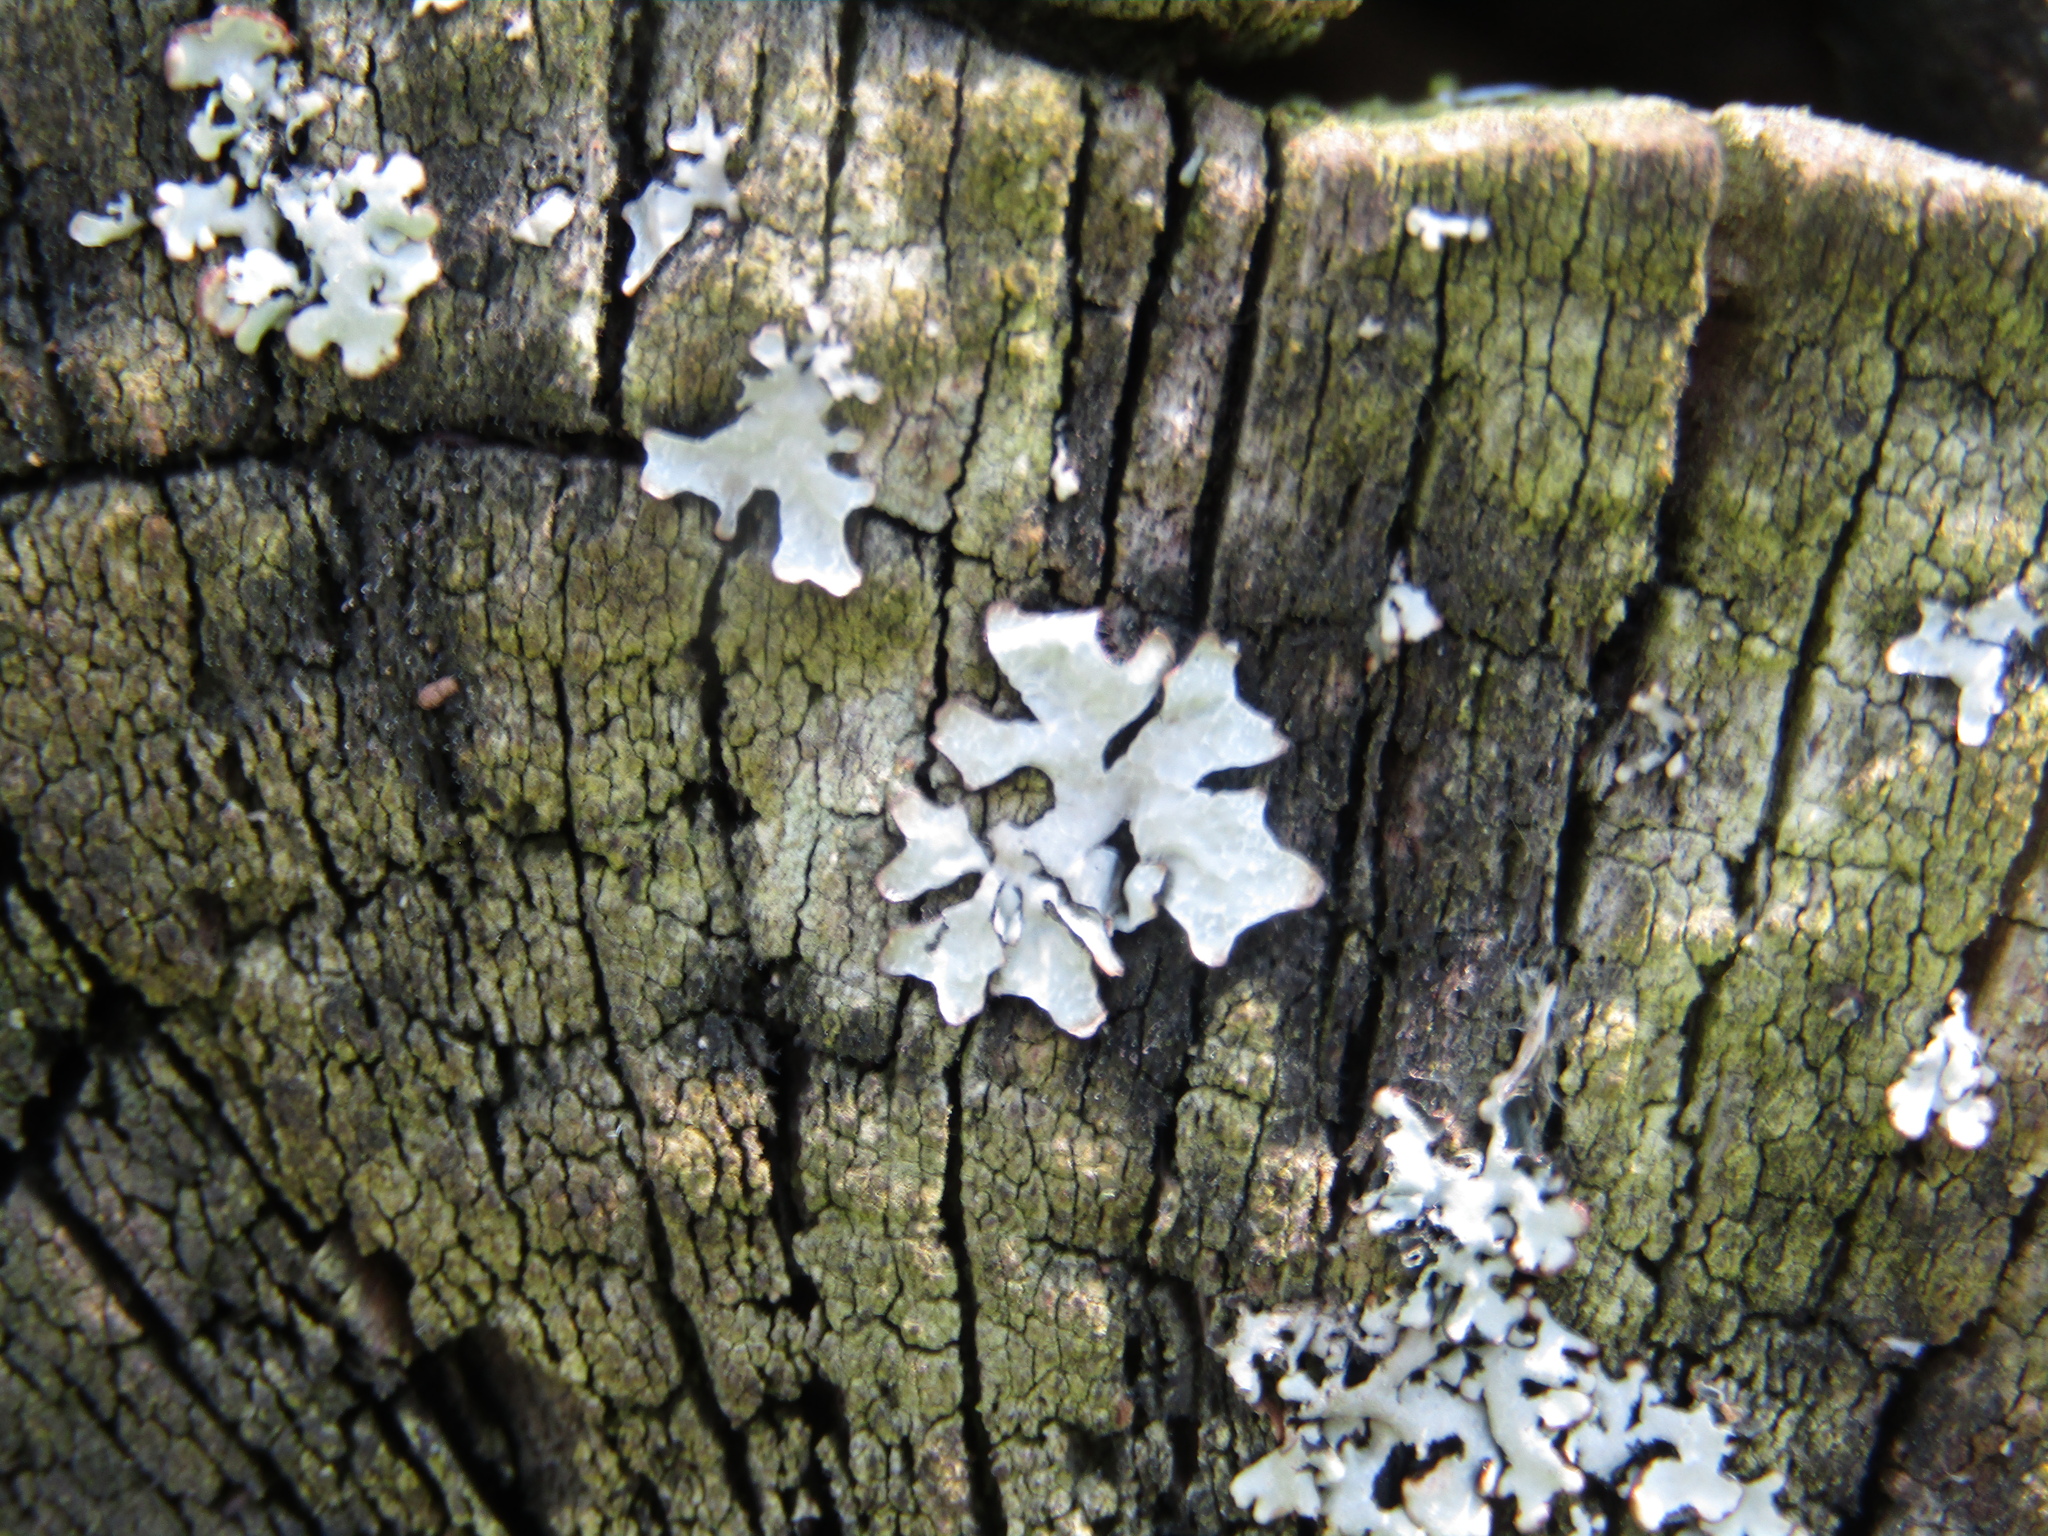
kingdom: Fungi
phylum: Ascomycota
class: Lecanoromycetes
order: Lecanorales
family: Parmeliaceae
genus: Parmelia
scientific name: Parmelia sulcata
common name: Netted shield lichen
